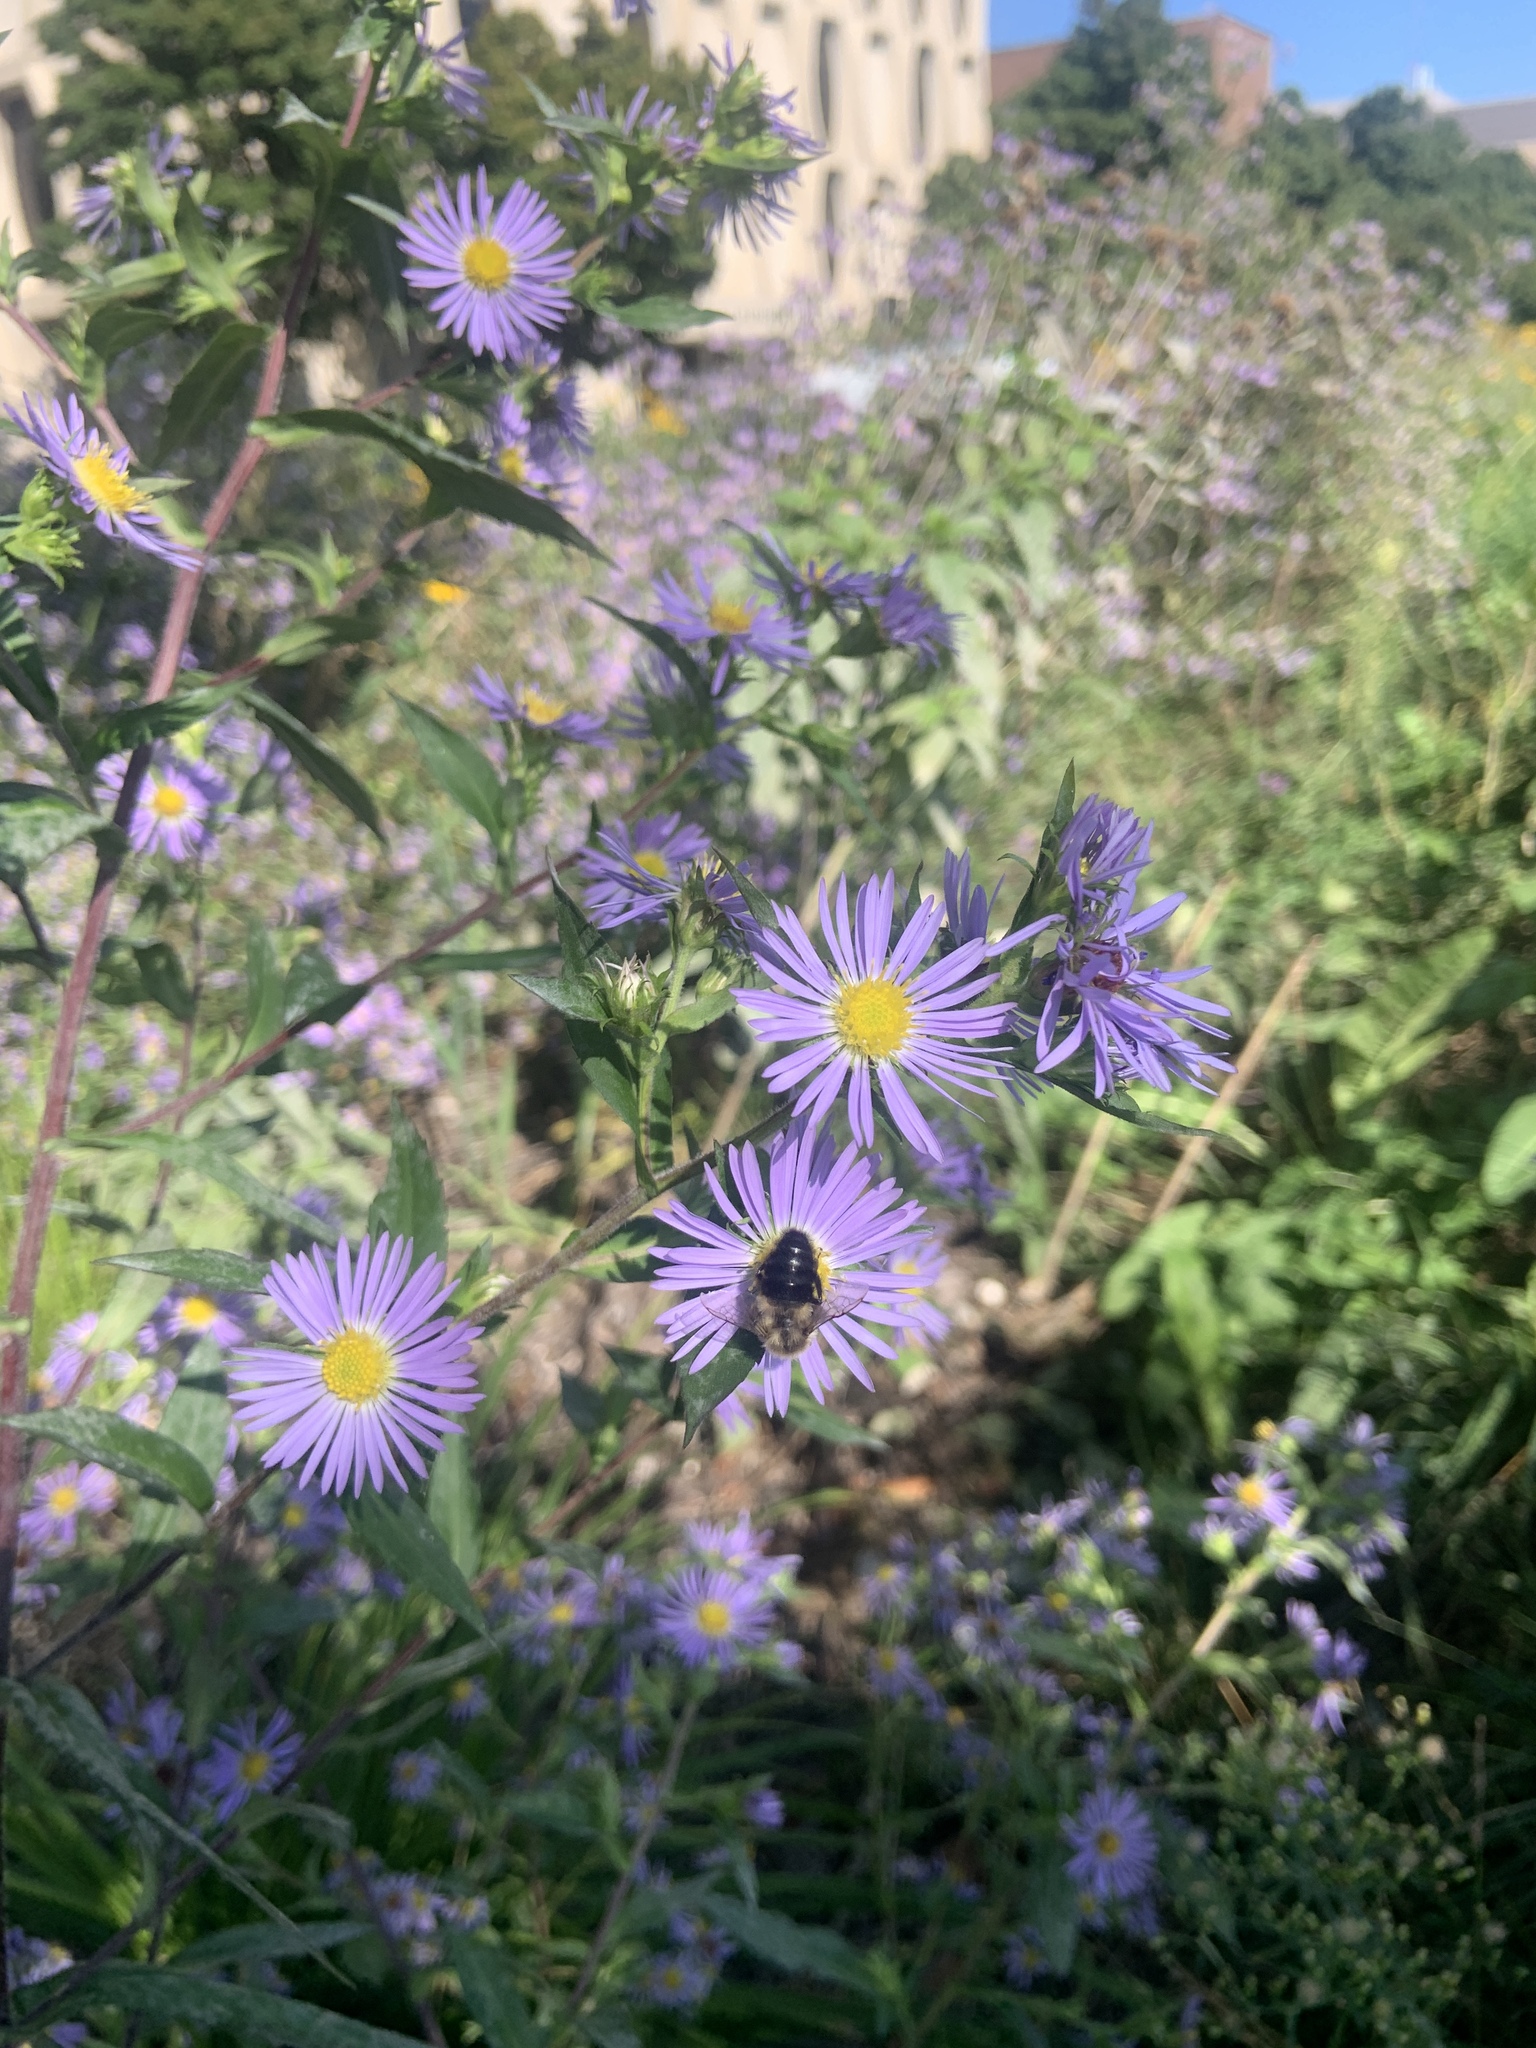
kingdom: Animalia
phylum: Arthropoda
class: Insecta
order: Hymenoptera
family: Apidae
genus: Bombus
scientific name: Bombus impatiens
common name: Common eastern bumble bee
